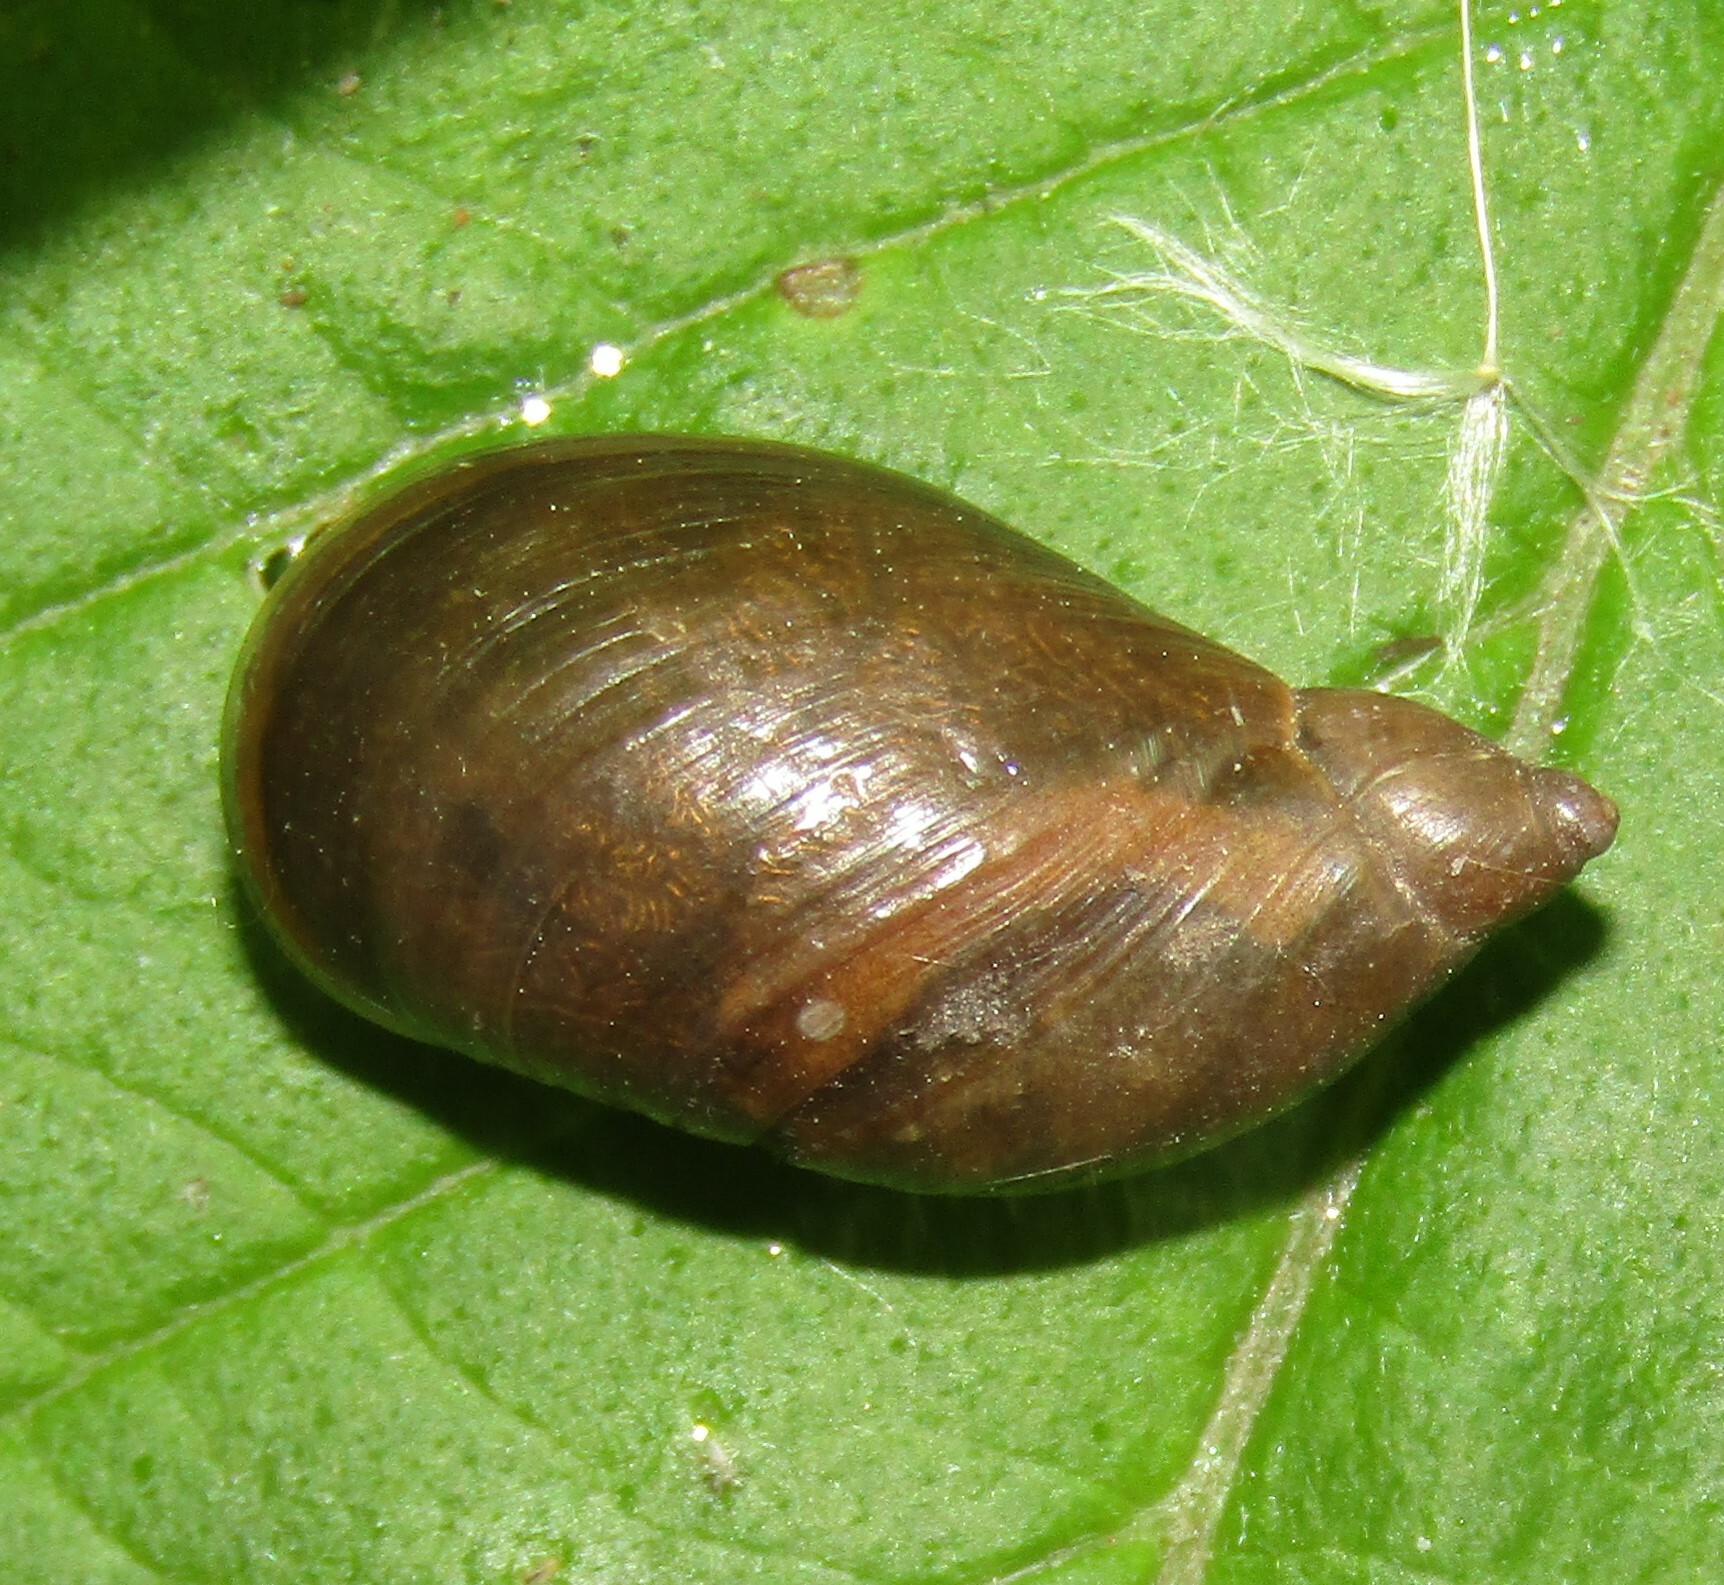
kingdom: Animalia
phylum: Mollusca
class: Gastropoda
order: Stylommatophora
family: Succineidae
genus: Succinea
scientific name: Succinea putris
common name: European ambersnail
